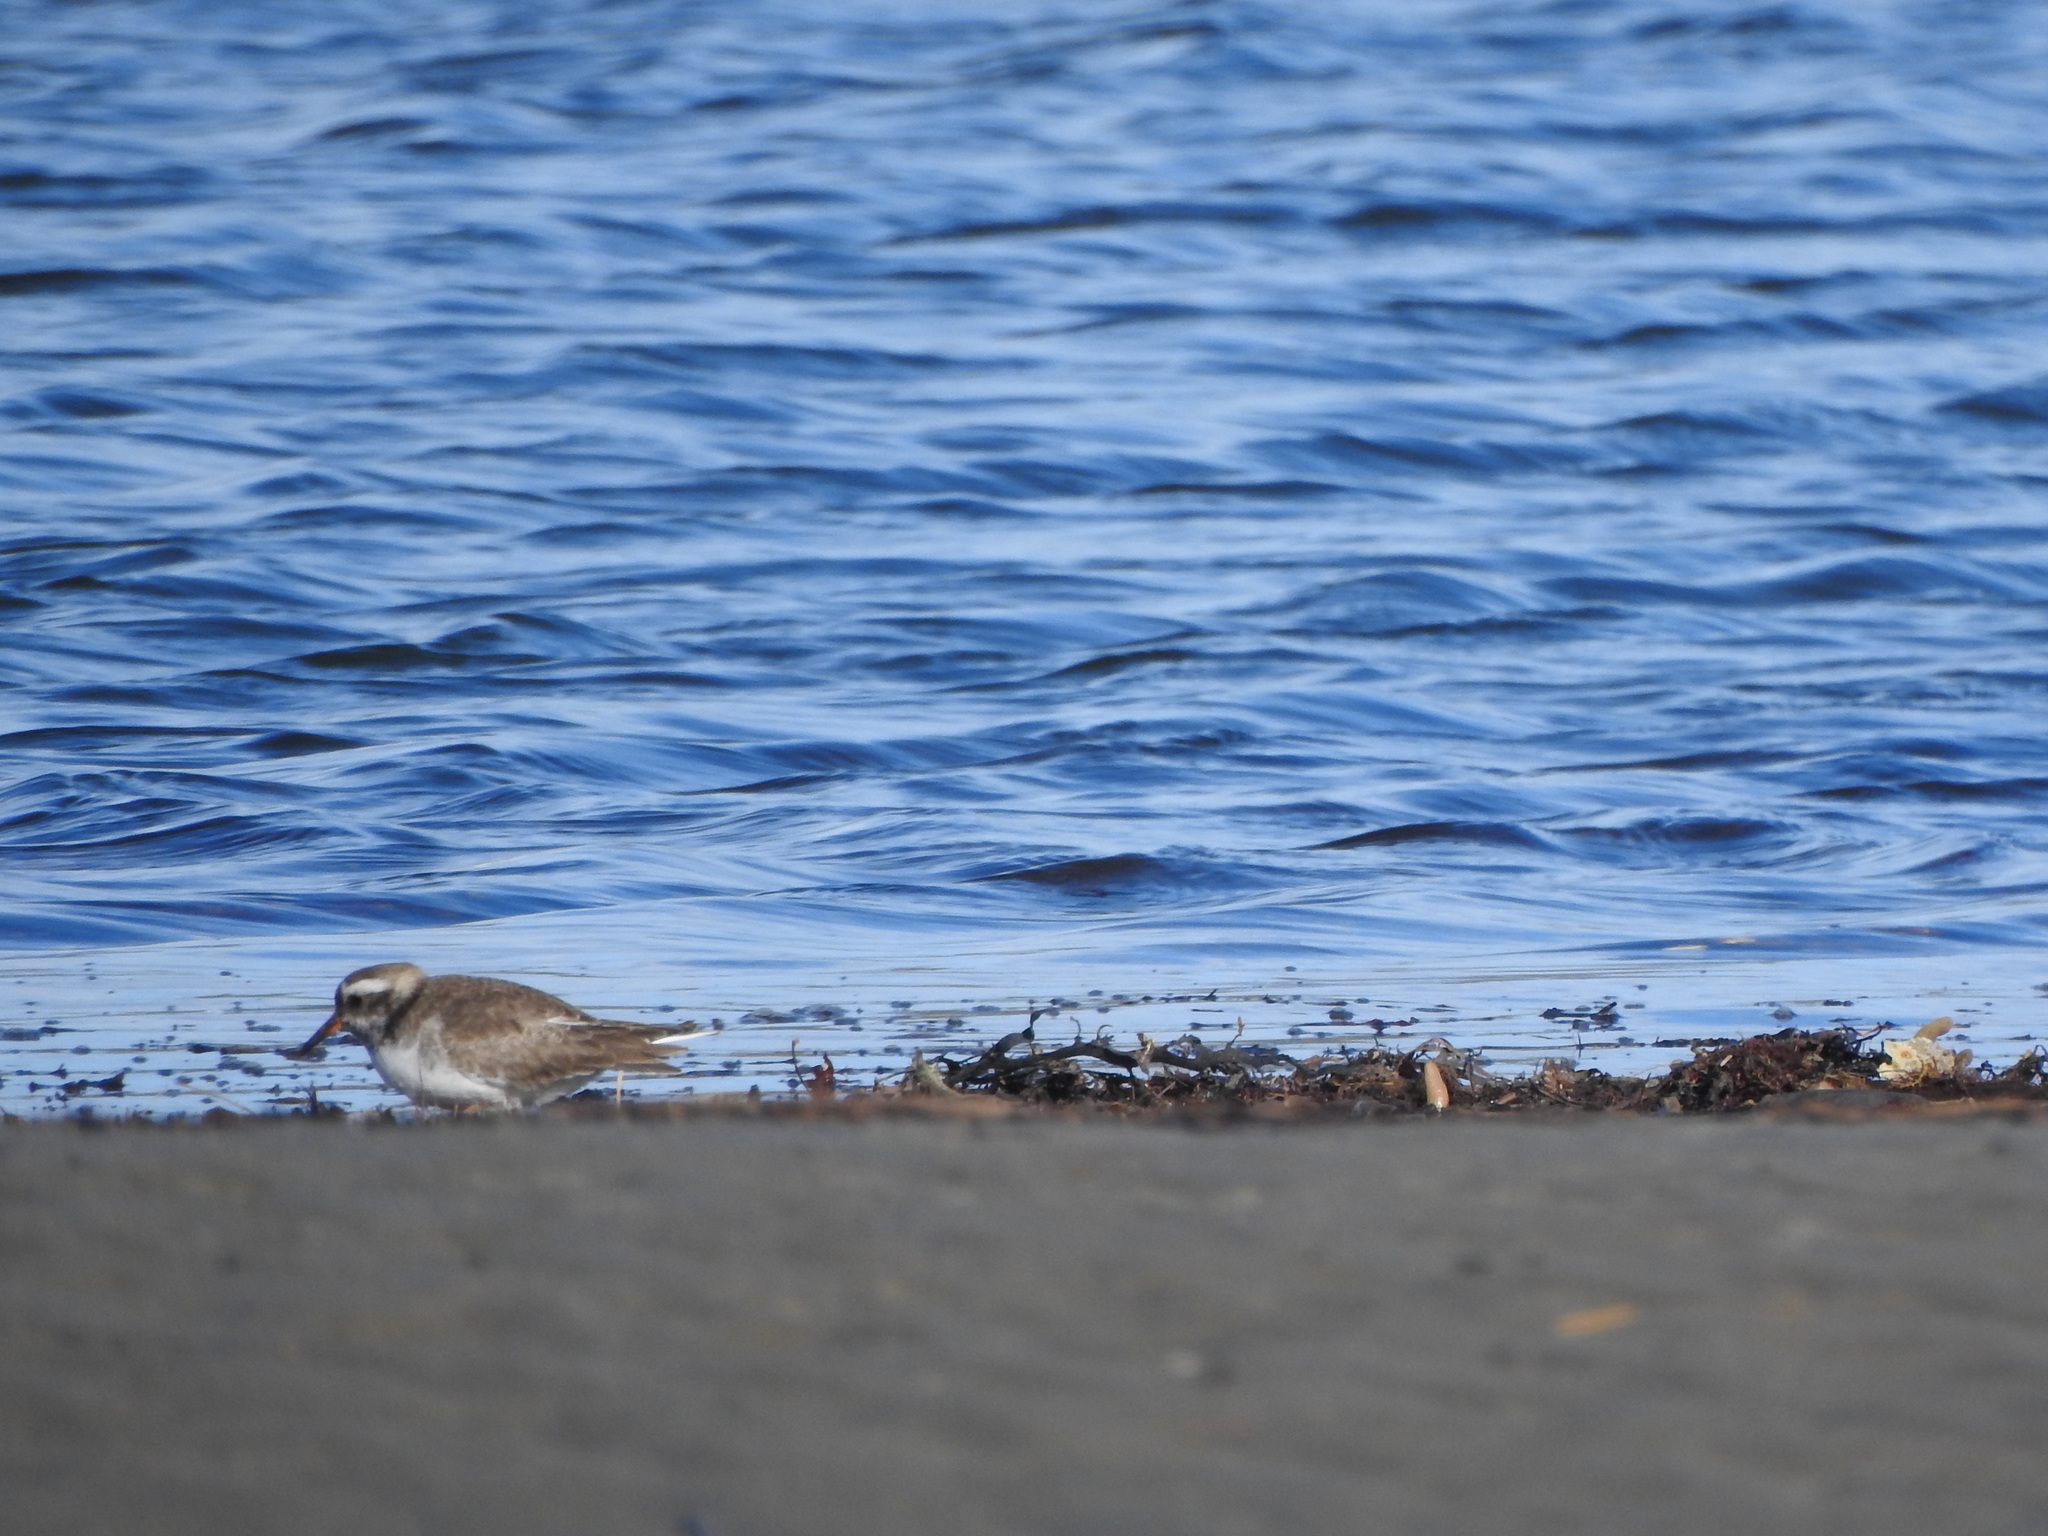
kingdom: Animalia
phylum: Chordata
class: Aves
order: Charadriiformes
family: Charadriidae
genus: Thinornis
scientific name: Thinornis novaeseelandiae
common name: Shore dotterel
